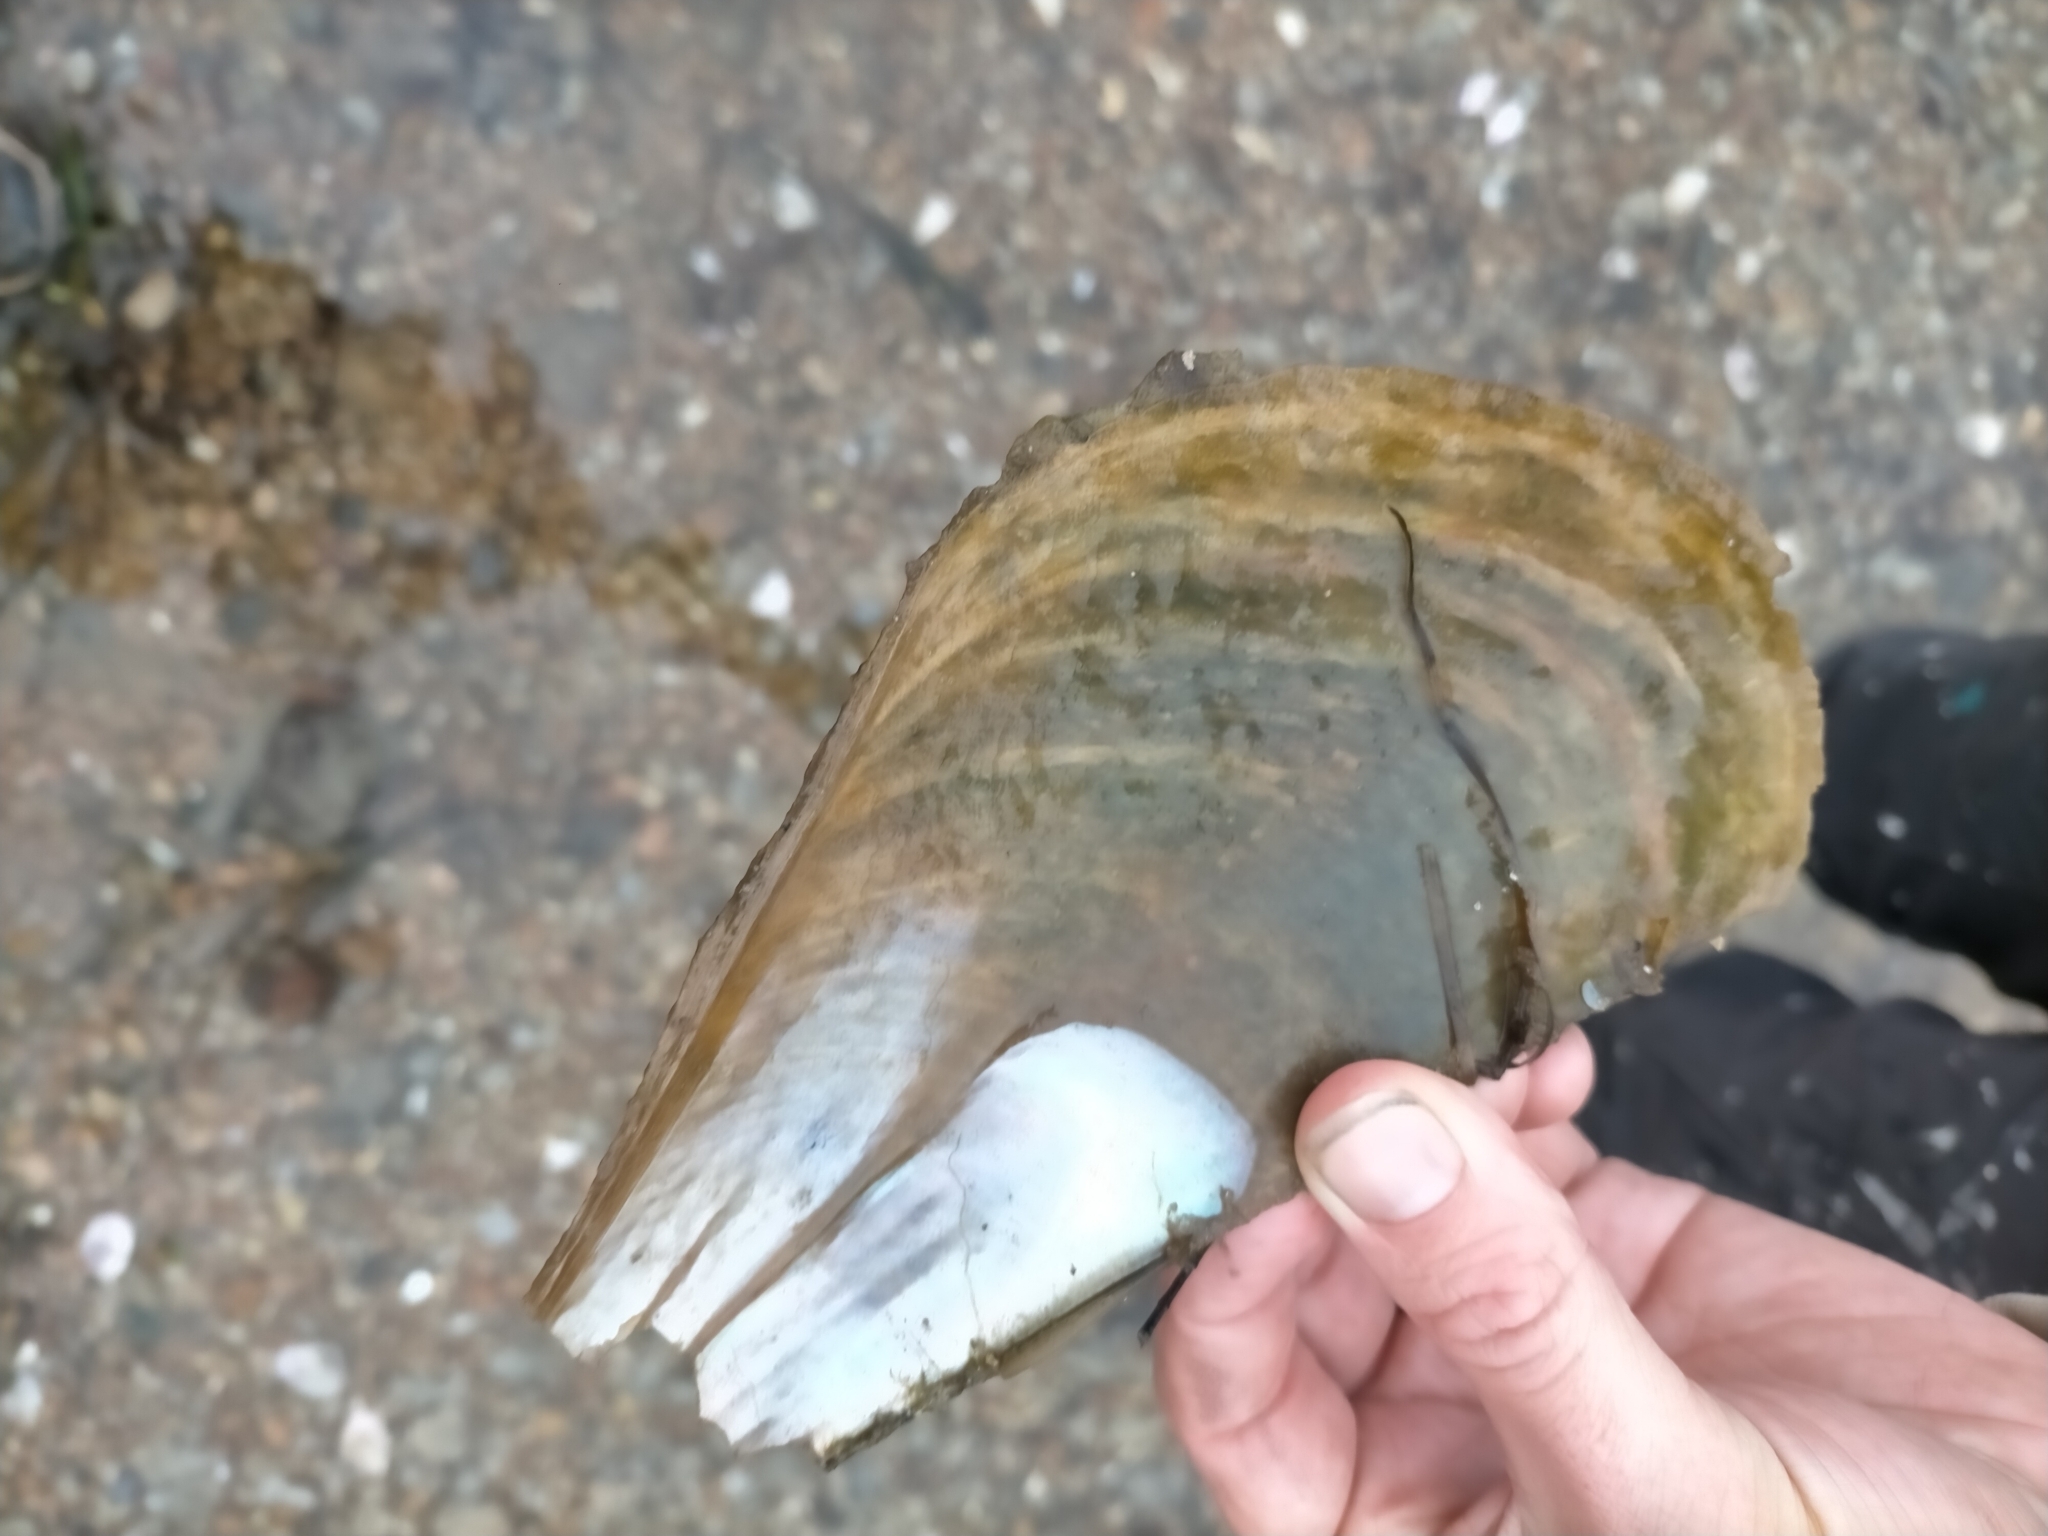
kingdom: Animalia
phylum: Mollusca
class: Bivalvia
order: Ostreida
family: Pinnidae
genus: Pinna
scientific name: Pinna bicolor
